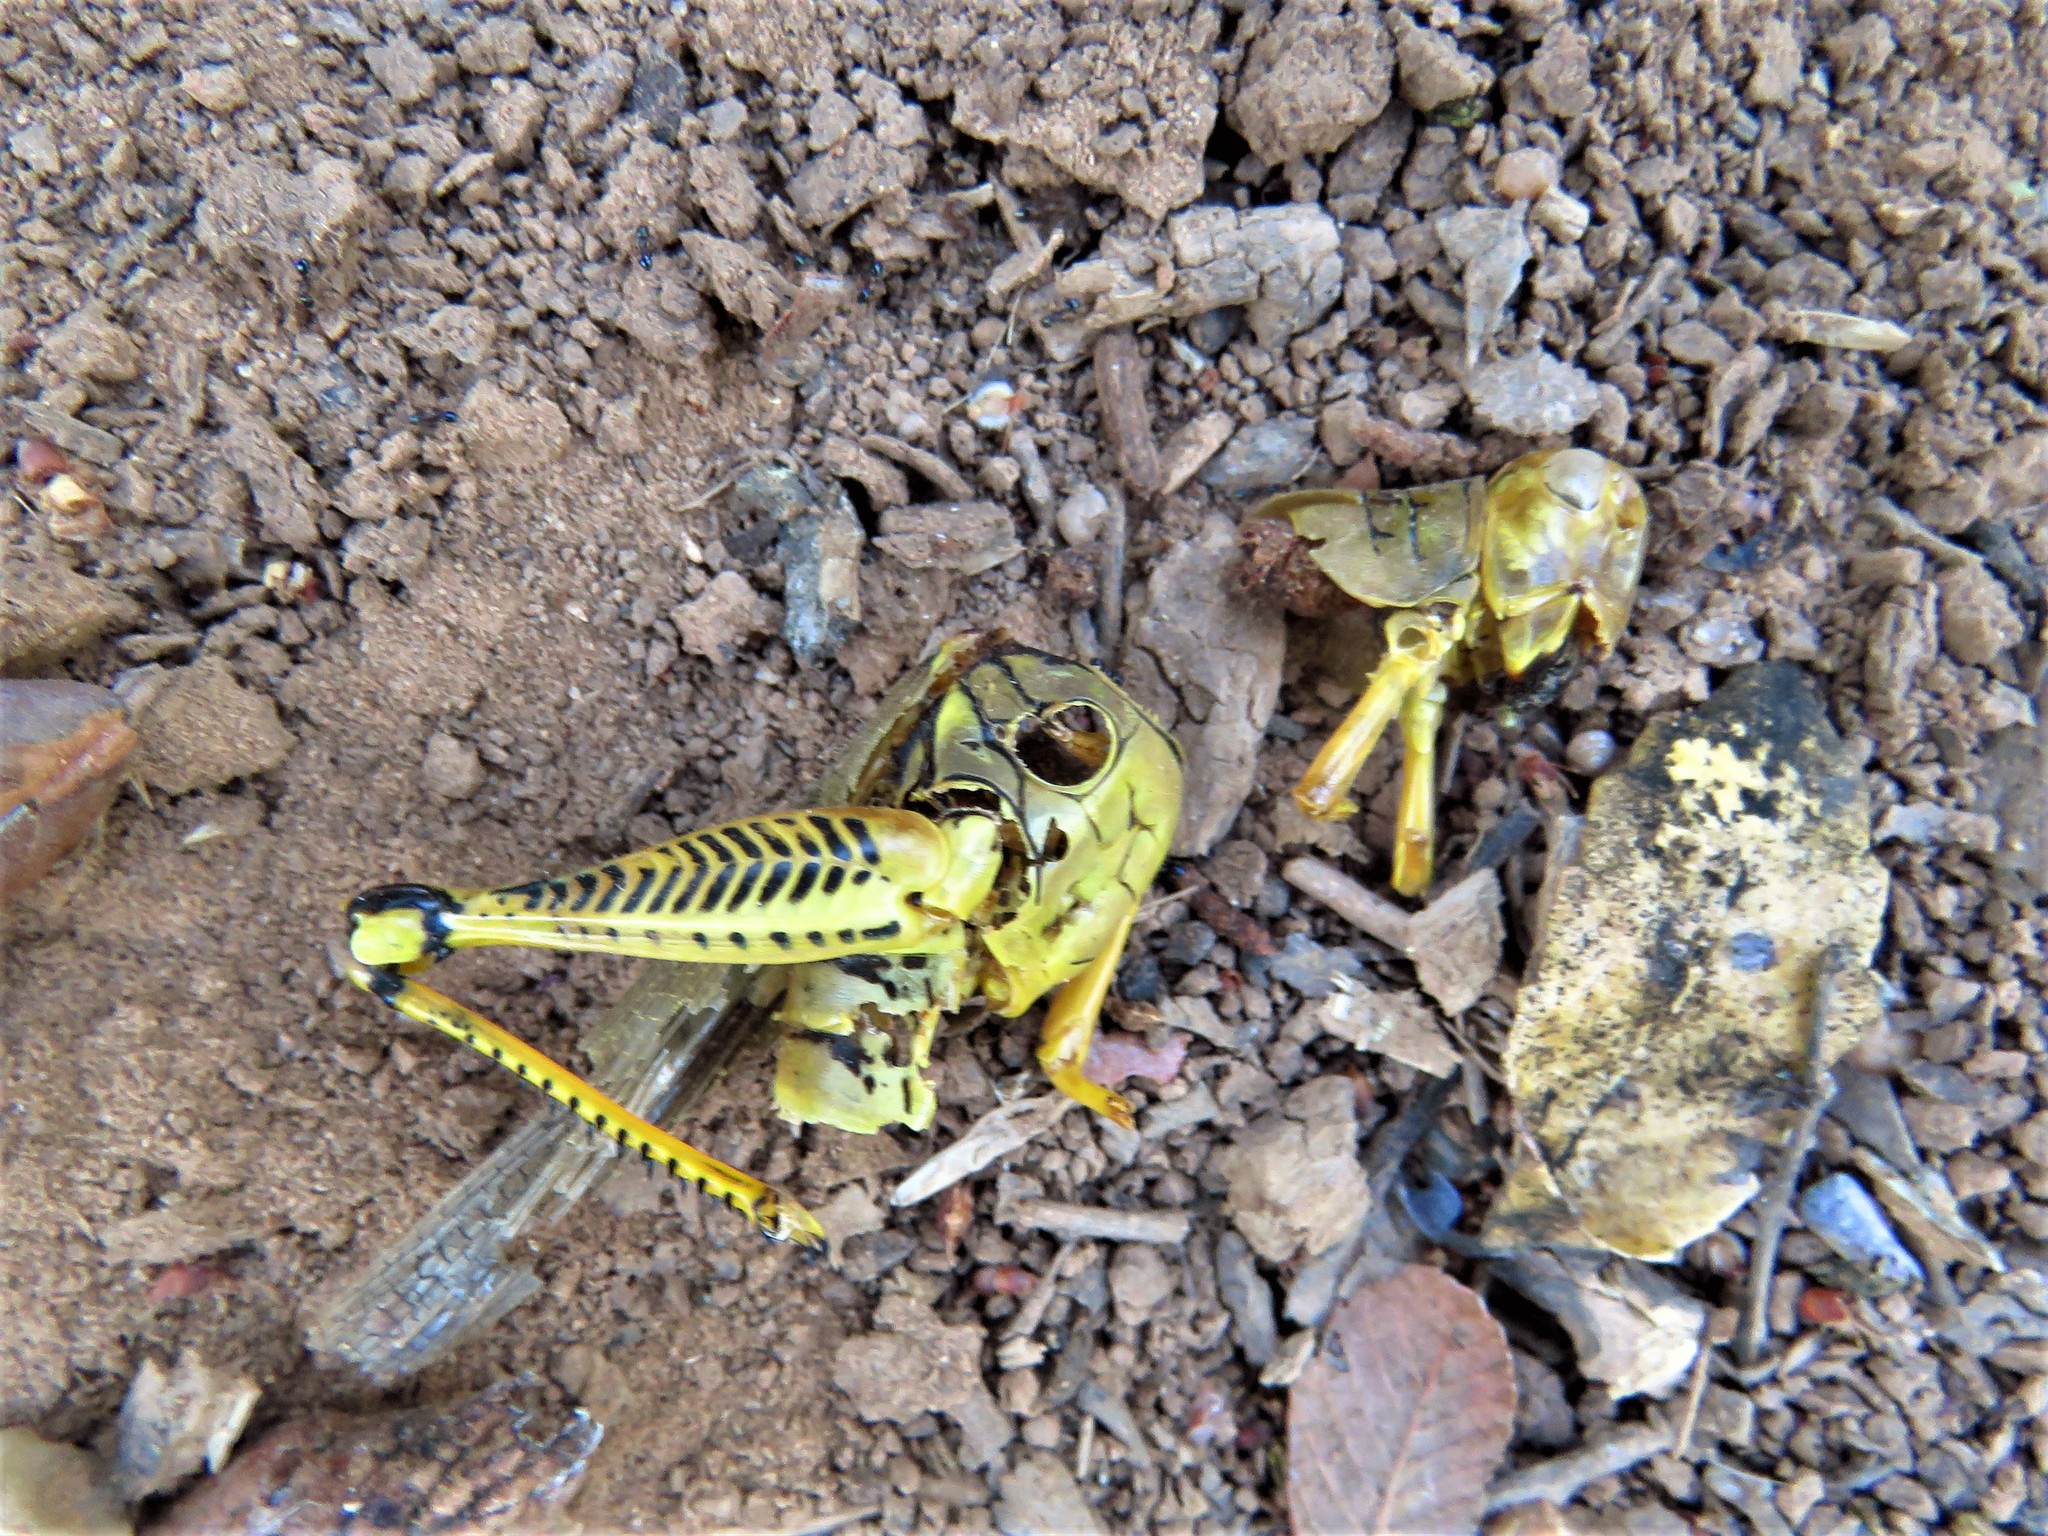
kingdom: Animalia
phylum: Arthropoda
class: Insecta
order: Orthoptera
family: Acrididae
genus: Melanoplus
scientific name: Melanoplus differentialis
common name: Differential grasshopper
